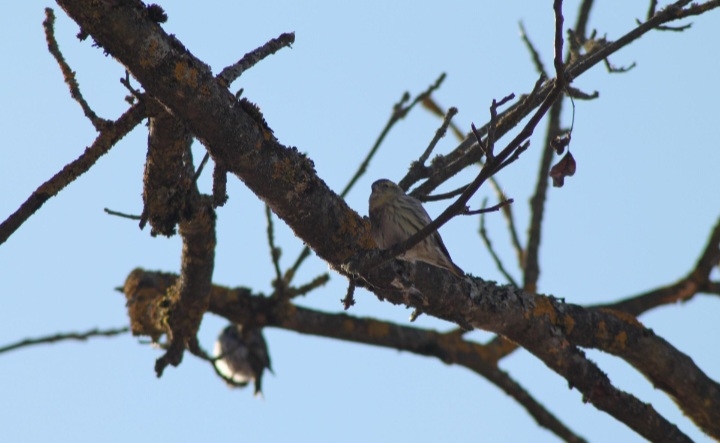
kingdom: Animalia
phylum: Chordata
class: Aves
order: Passeriformes
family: Fringillidae
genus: Serinus
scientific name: Serinus serinus
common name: European serin
